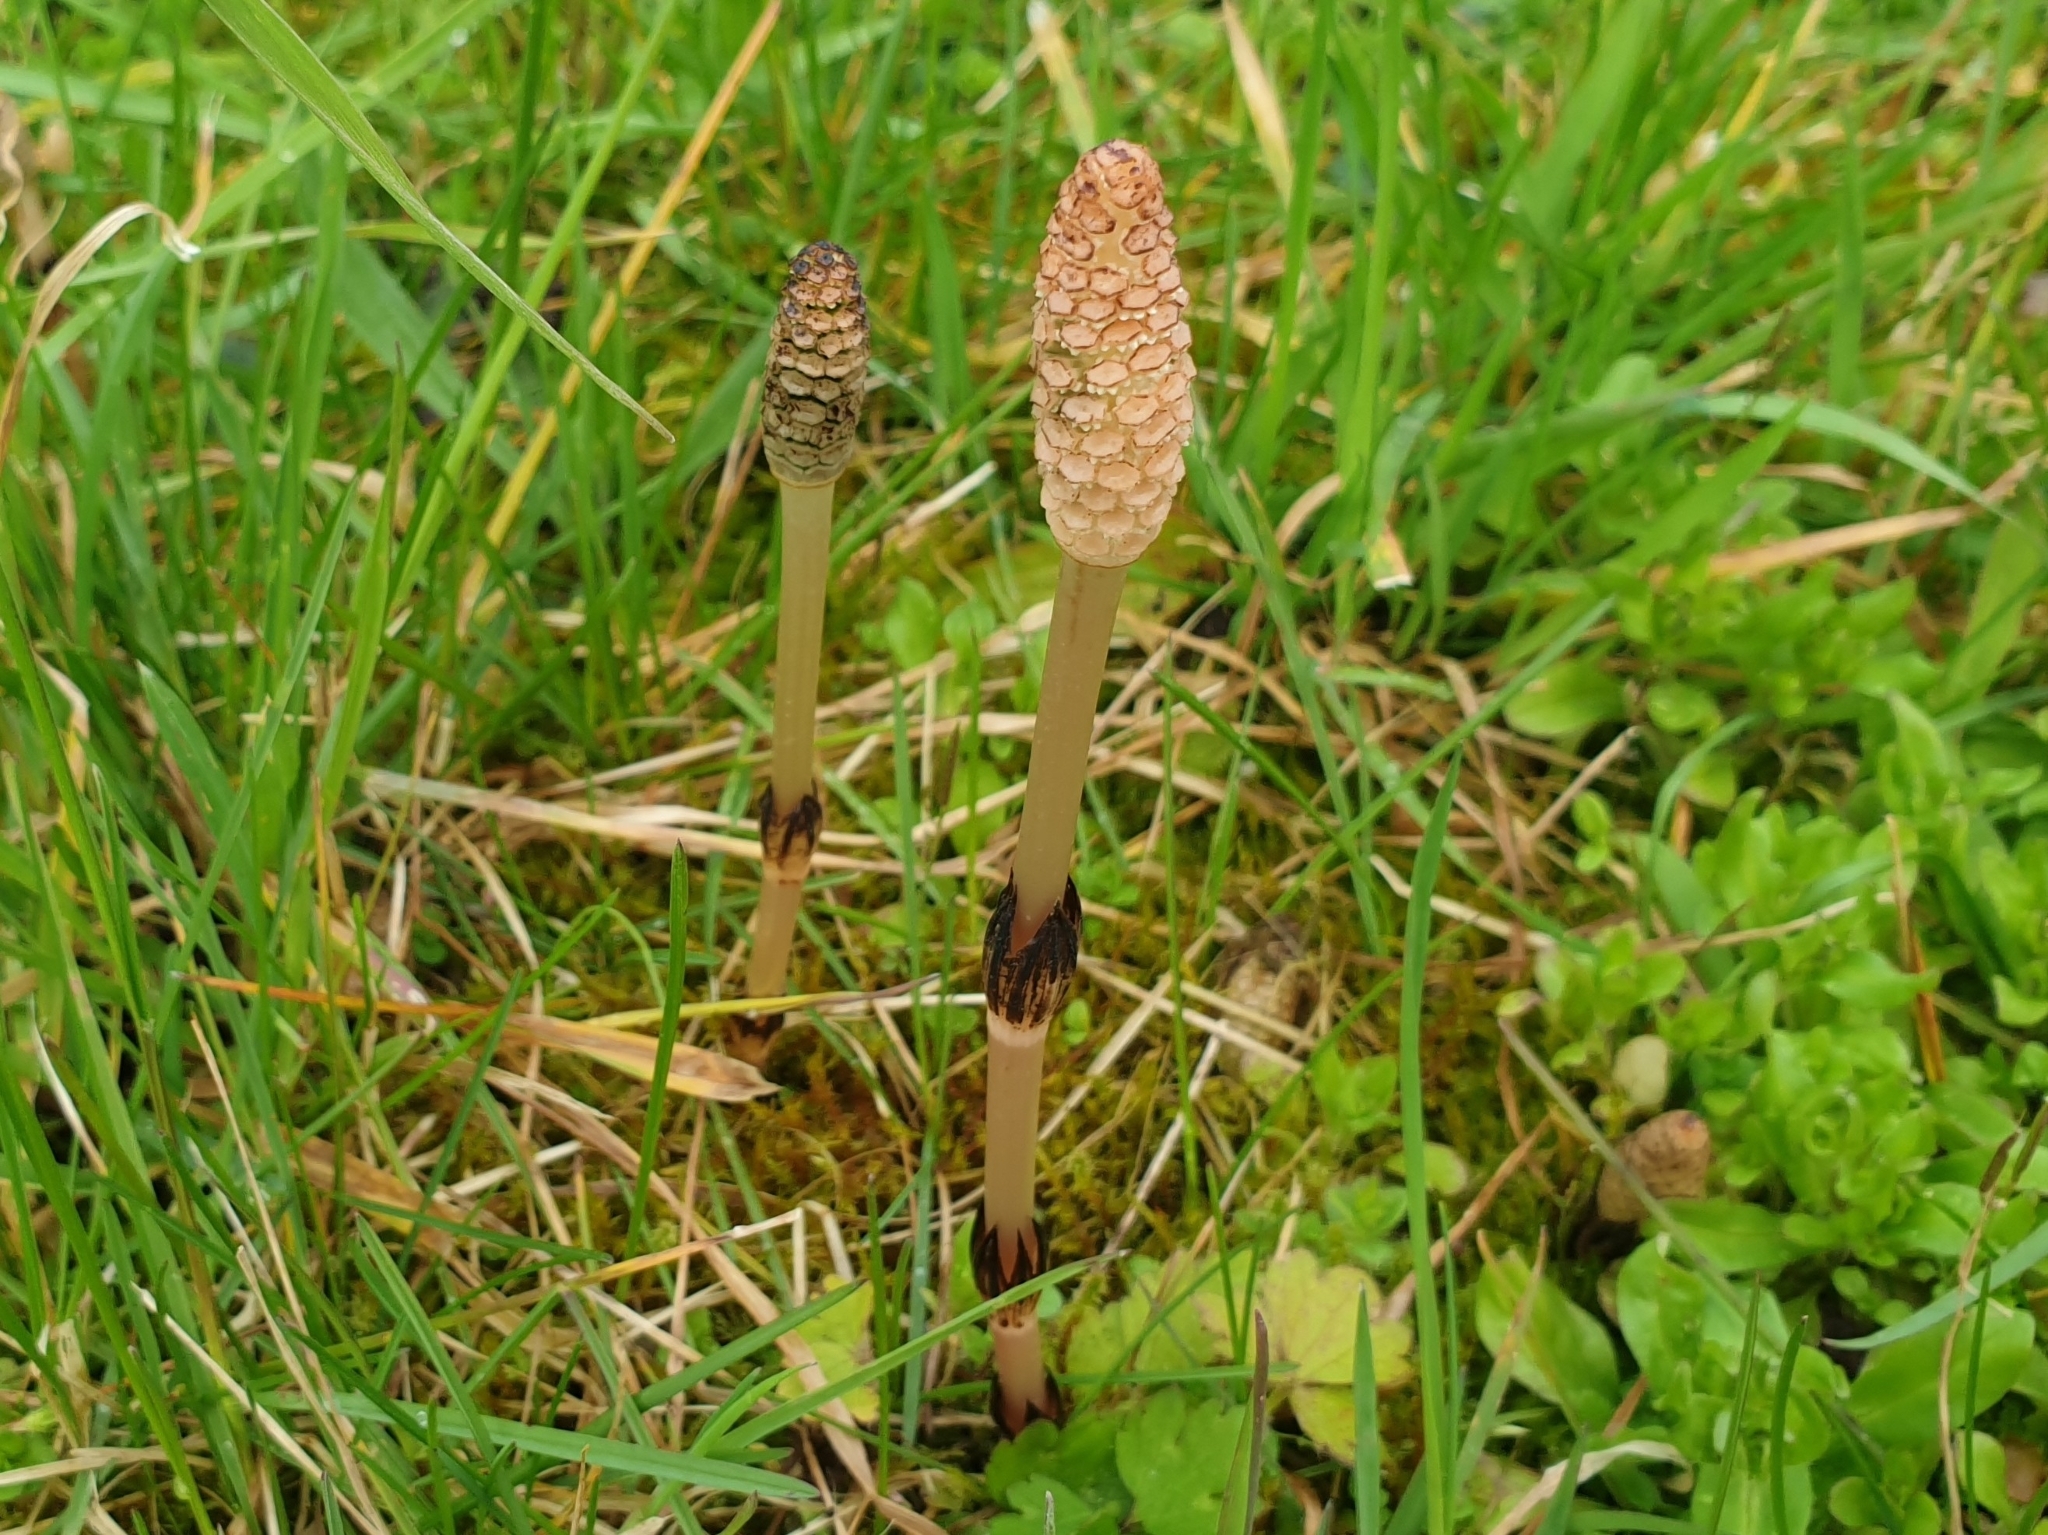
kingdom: Plantae
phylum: Tracheophyta
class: Polypodiopsida
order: Equisetales
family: Equisetaceae
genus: Equisetum
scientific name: Equisetum arvense
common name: Field horsetail
